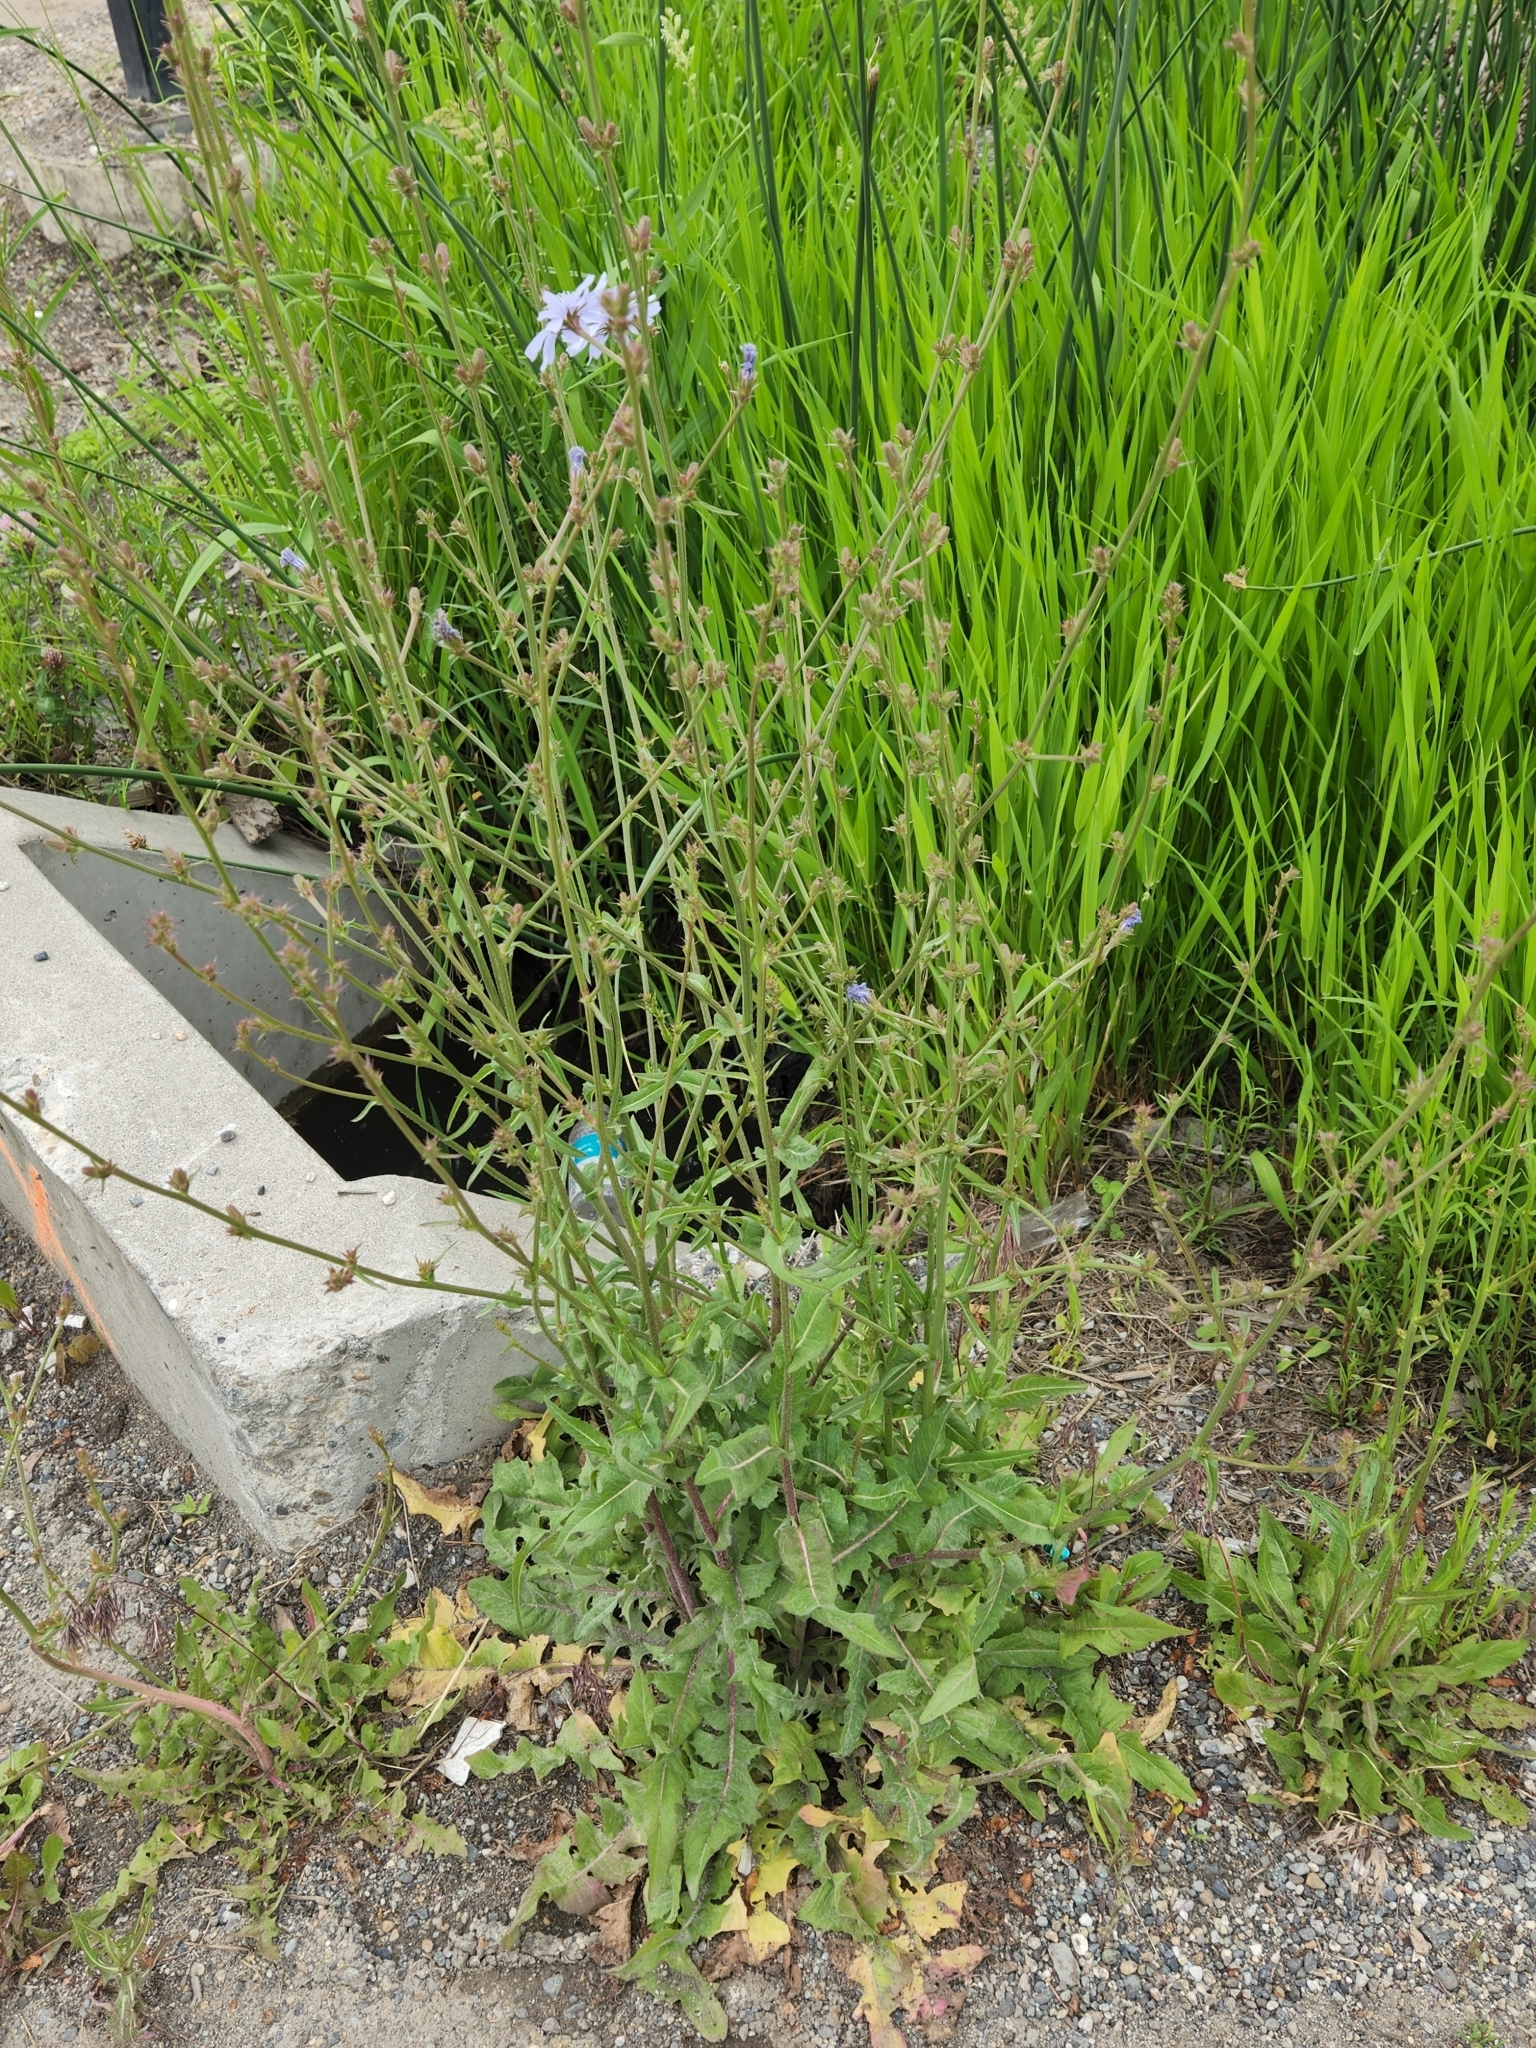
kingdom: Plantae
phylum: Tracheophyta
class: Magnoliopsida
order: Asterales
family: Asteraceae
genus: Cichorium
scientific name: Cichorium intybus
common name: Chicory
